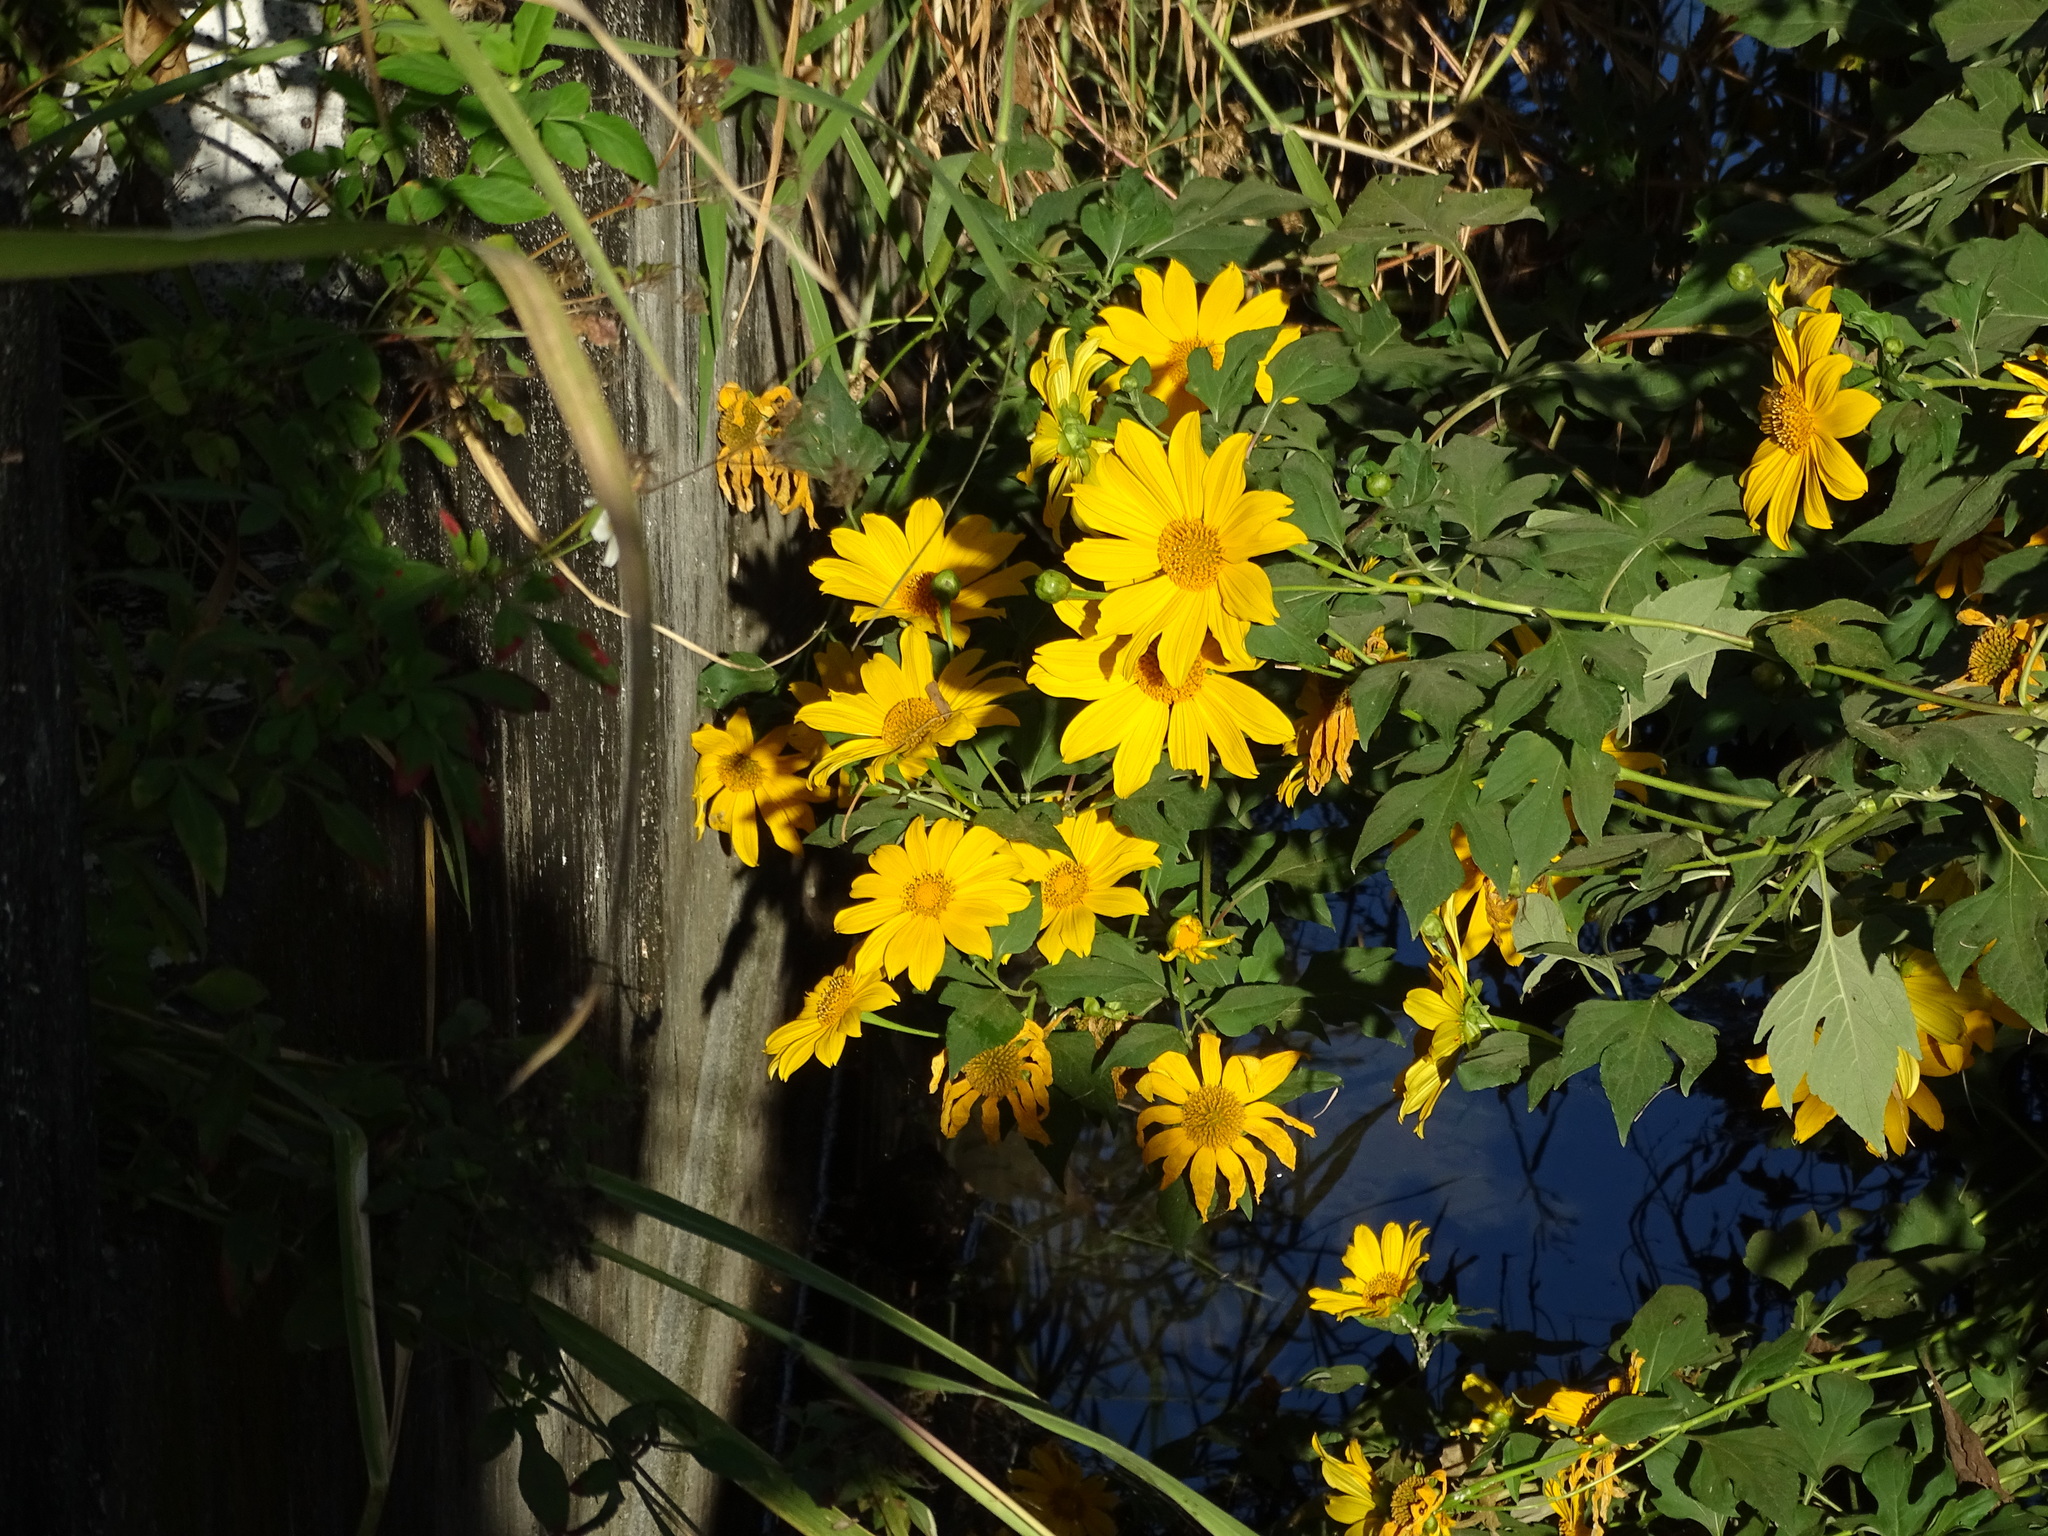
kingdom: Plantae
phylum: Tracheophyta
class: Magnoliopsida
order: Asterales
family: Asteraceae
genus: Tithonia
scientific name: Tithonia diversifolia
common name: Tree marigold
